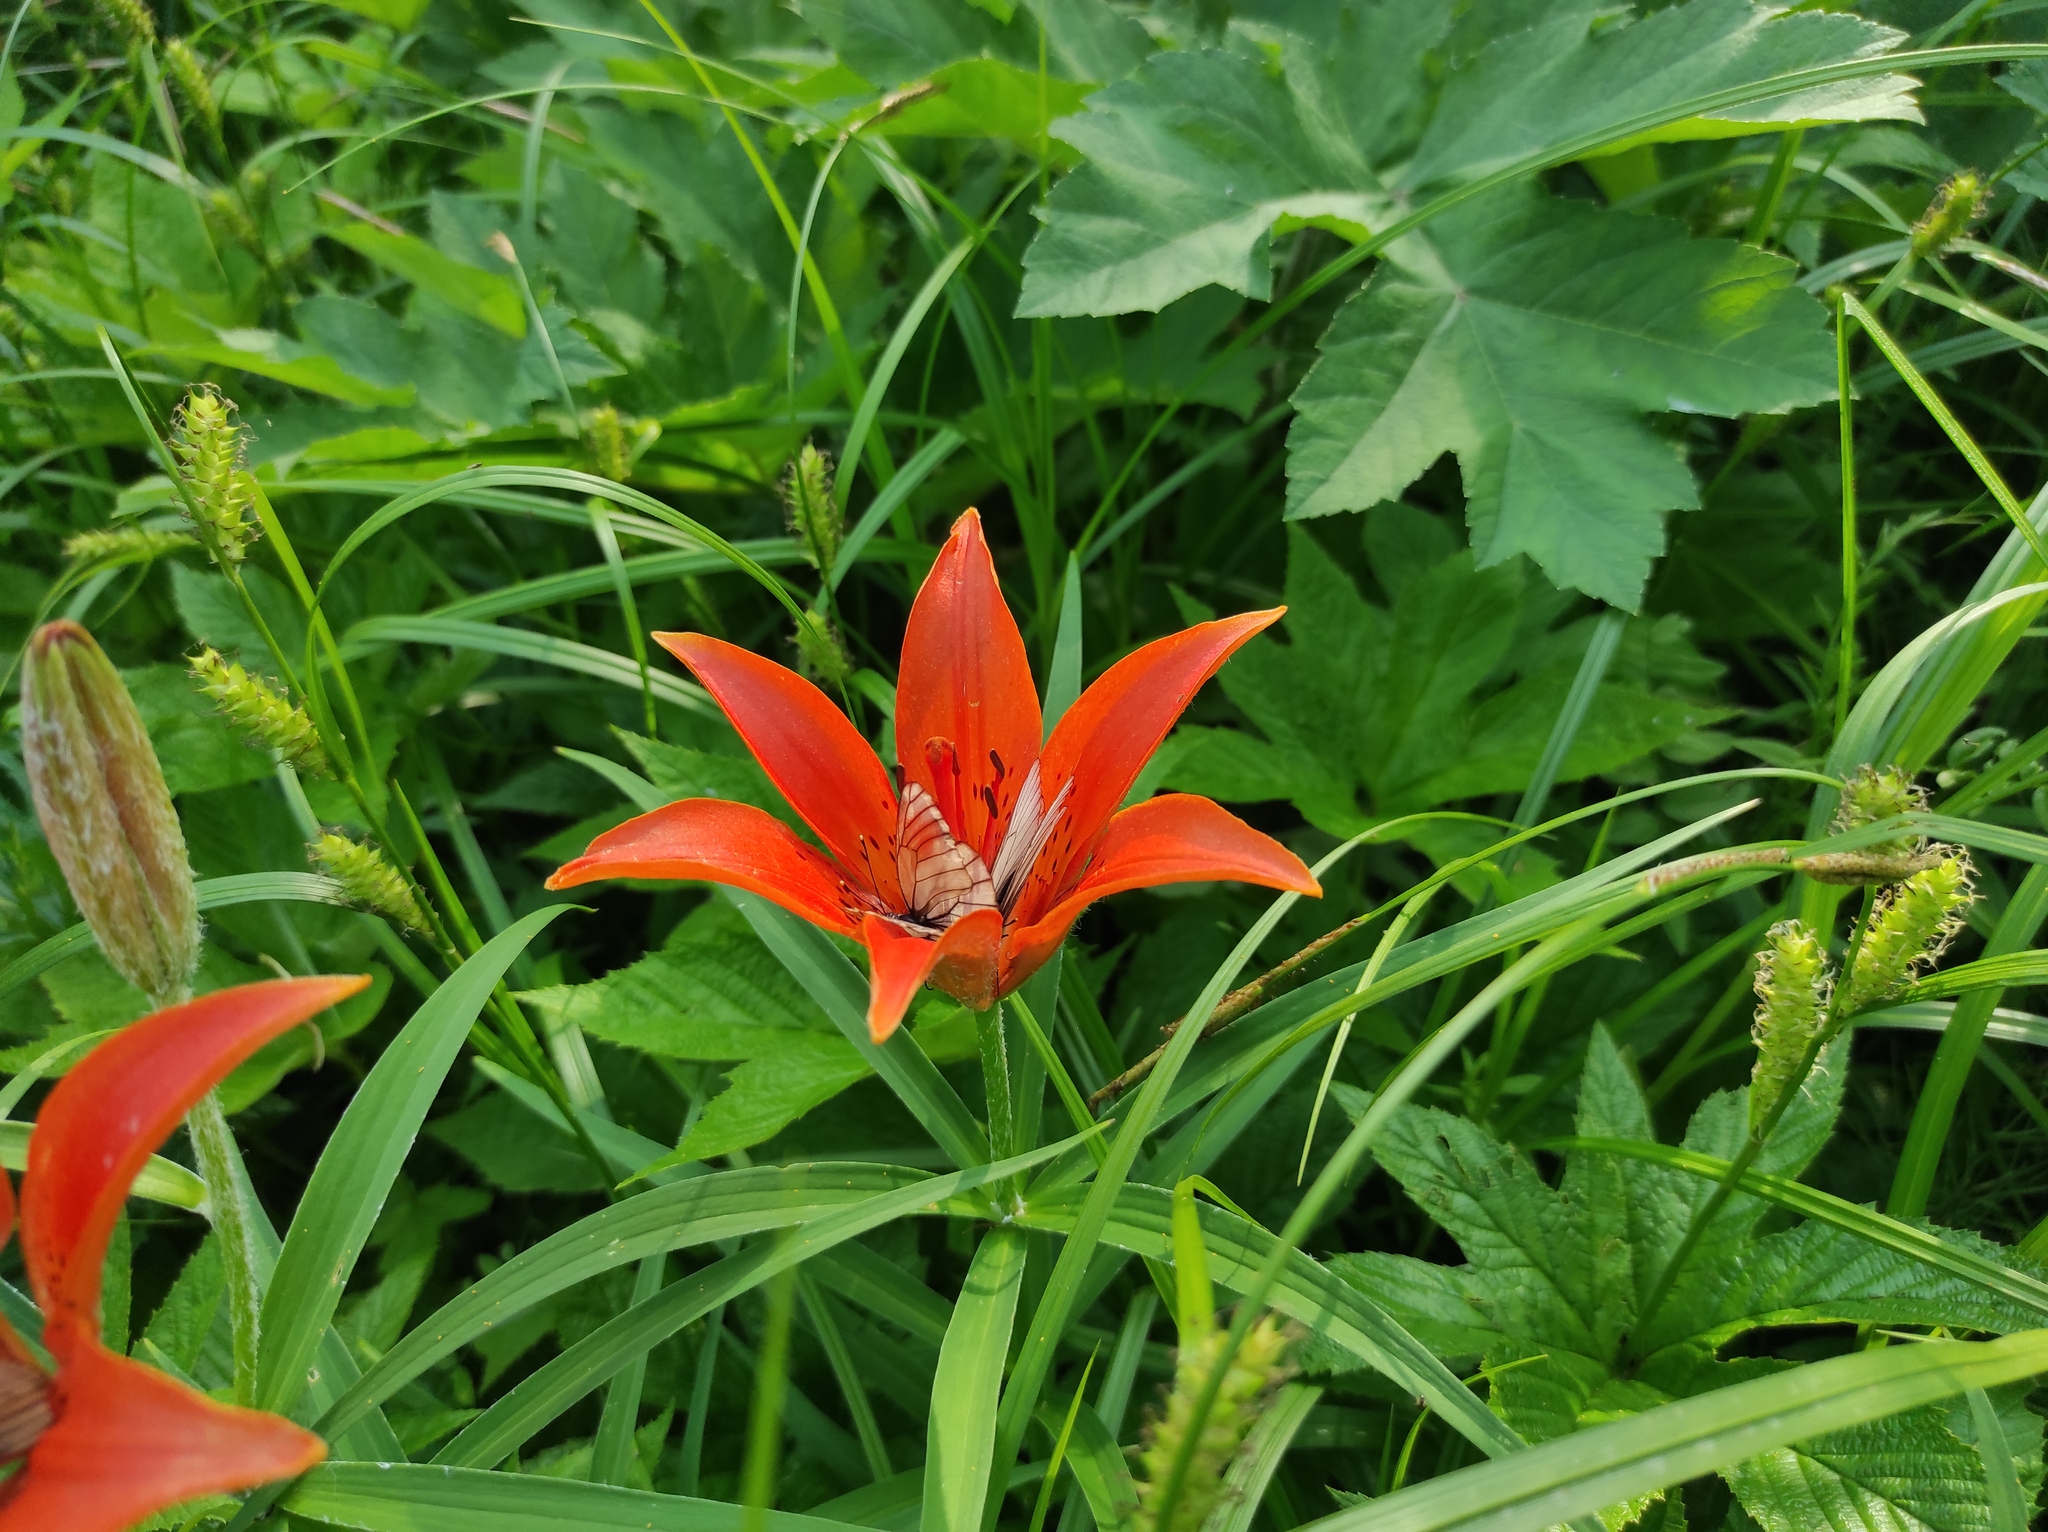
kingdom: Animalia
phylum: Arthropoda
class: Insecta
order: Lepidoptera
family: Pieridae
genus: Aporia
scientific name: Aporia crataegi
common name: Black-veined white
